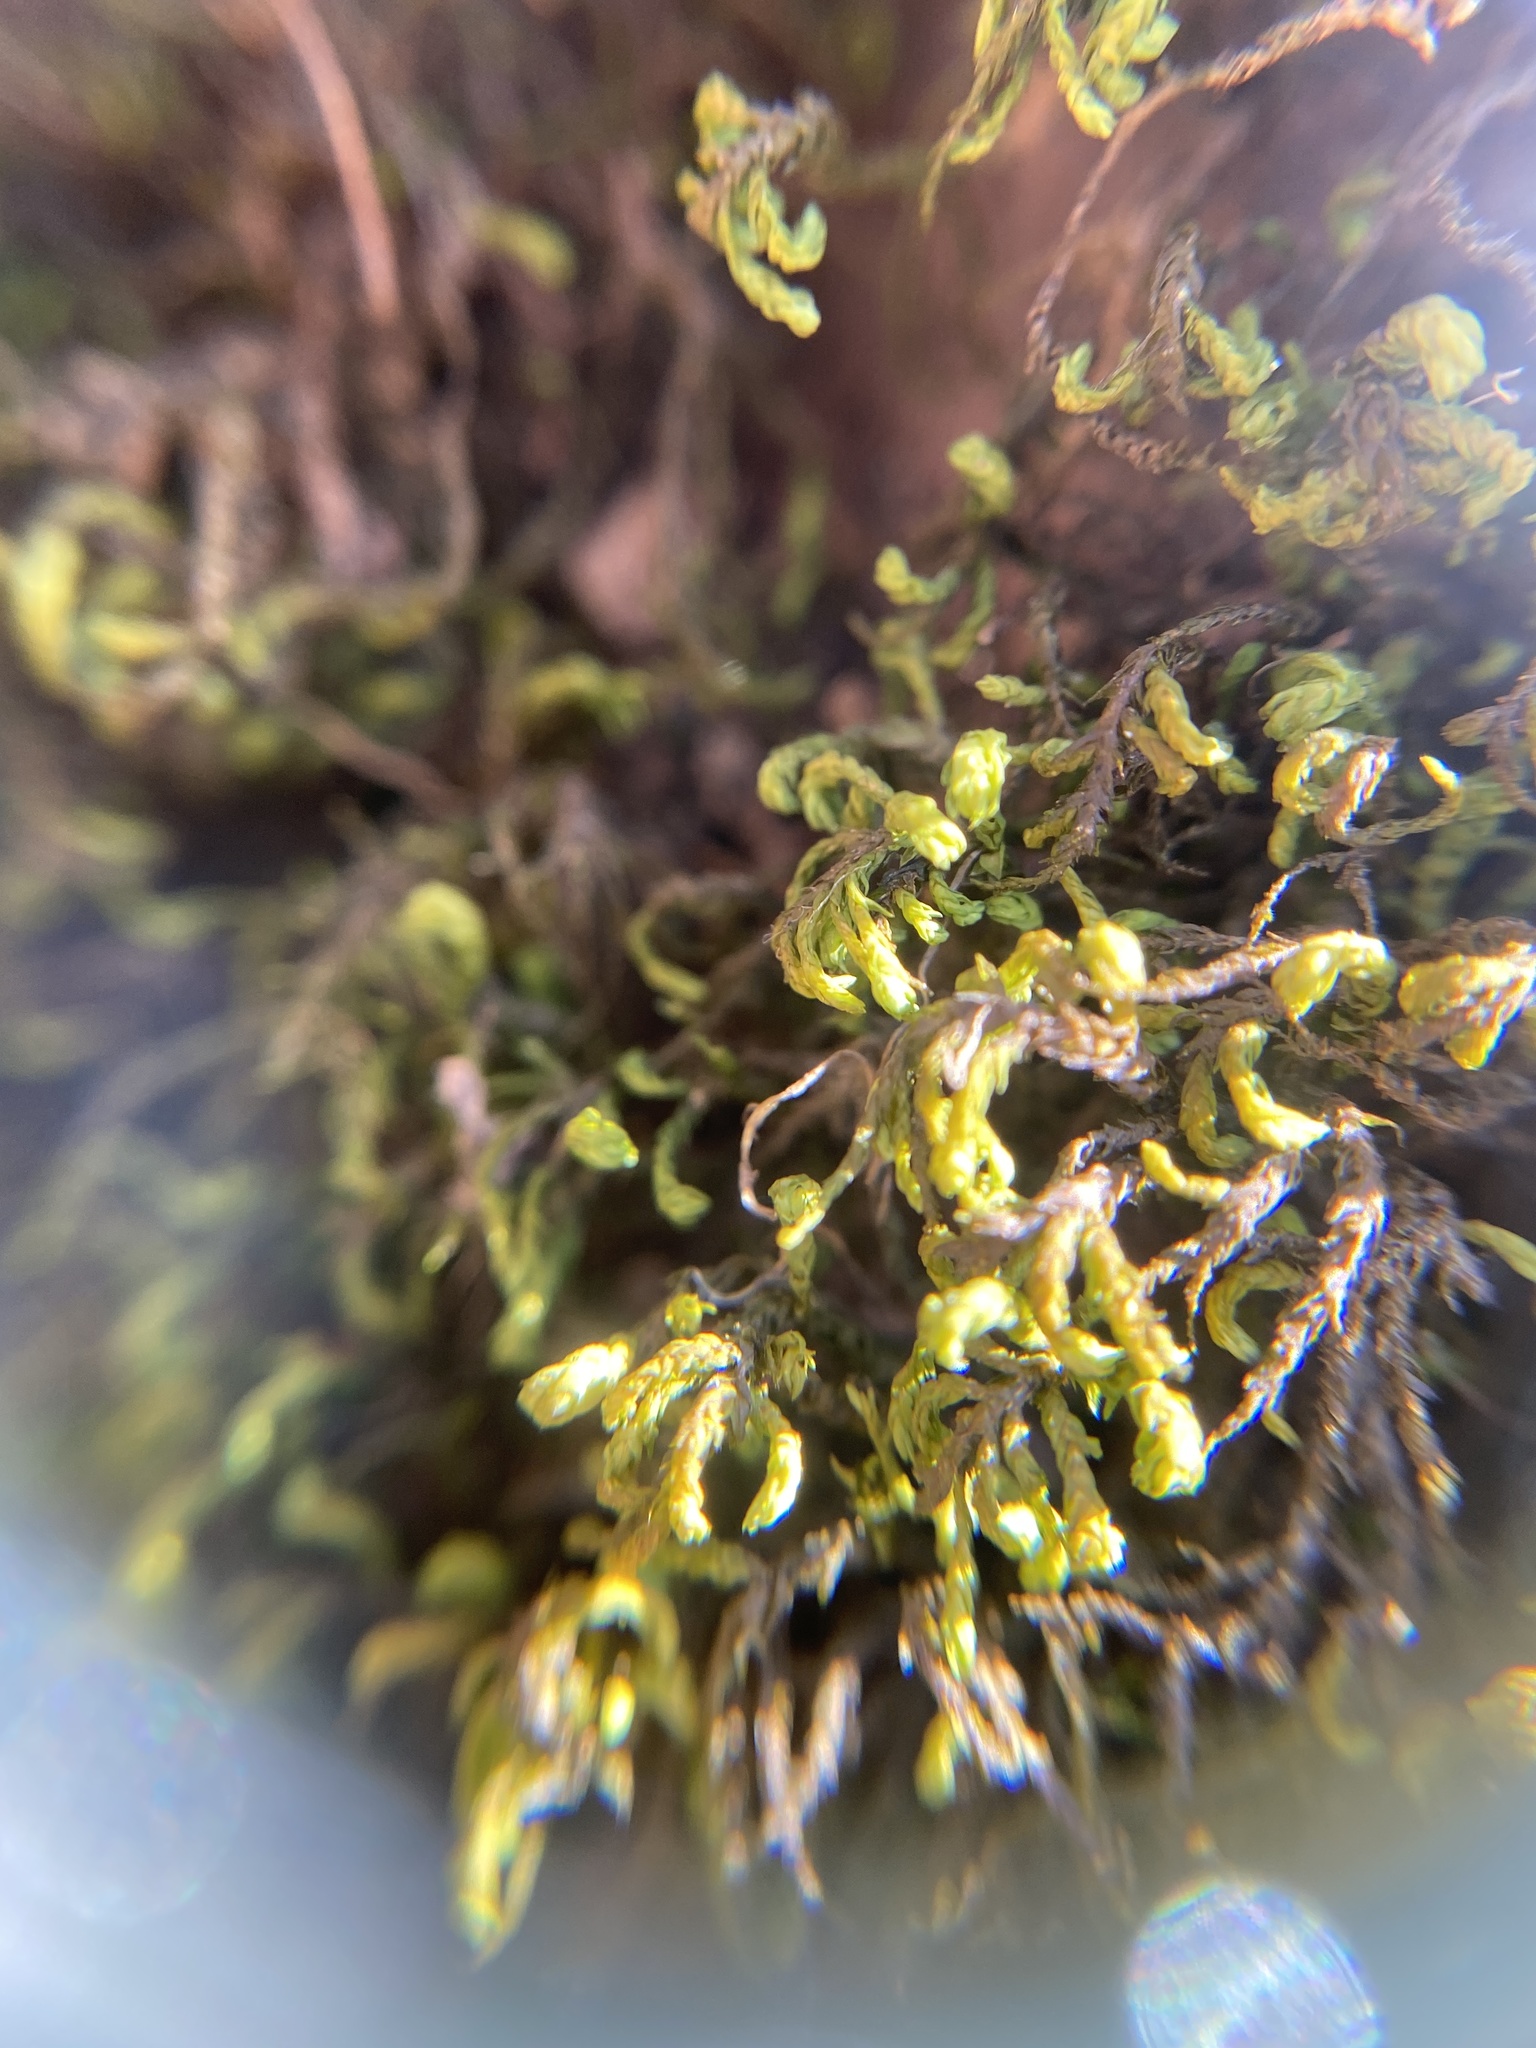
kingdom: Plantae
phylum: Bryophyta
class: Bryopsida
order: Hypnales
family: Neckeraceae
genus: Pseudanomodon
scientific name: Pseudanomodon attenuatus
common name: Tree-skirt moss
